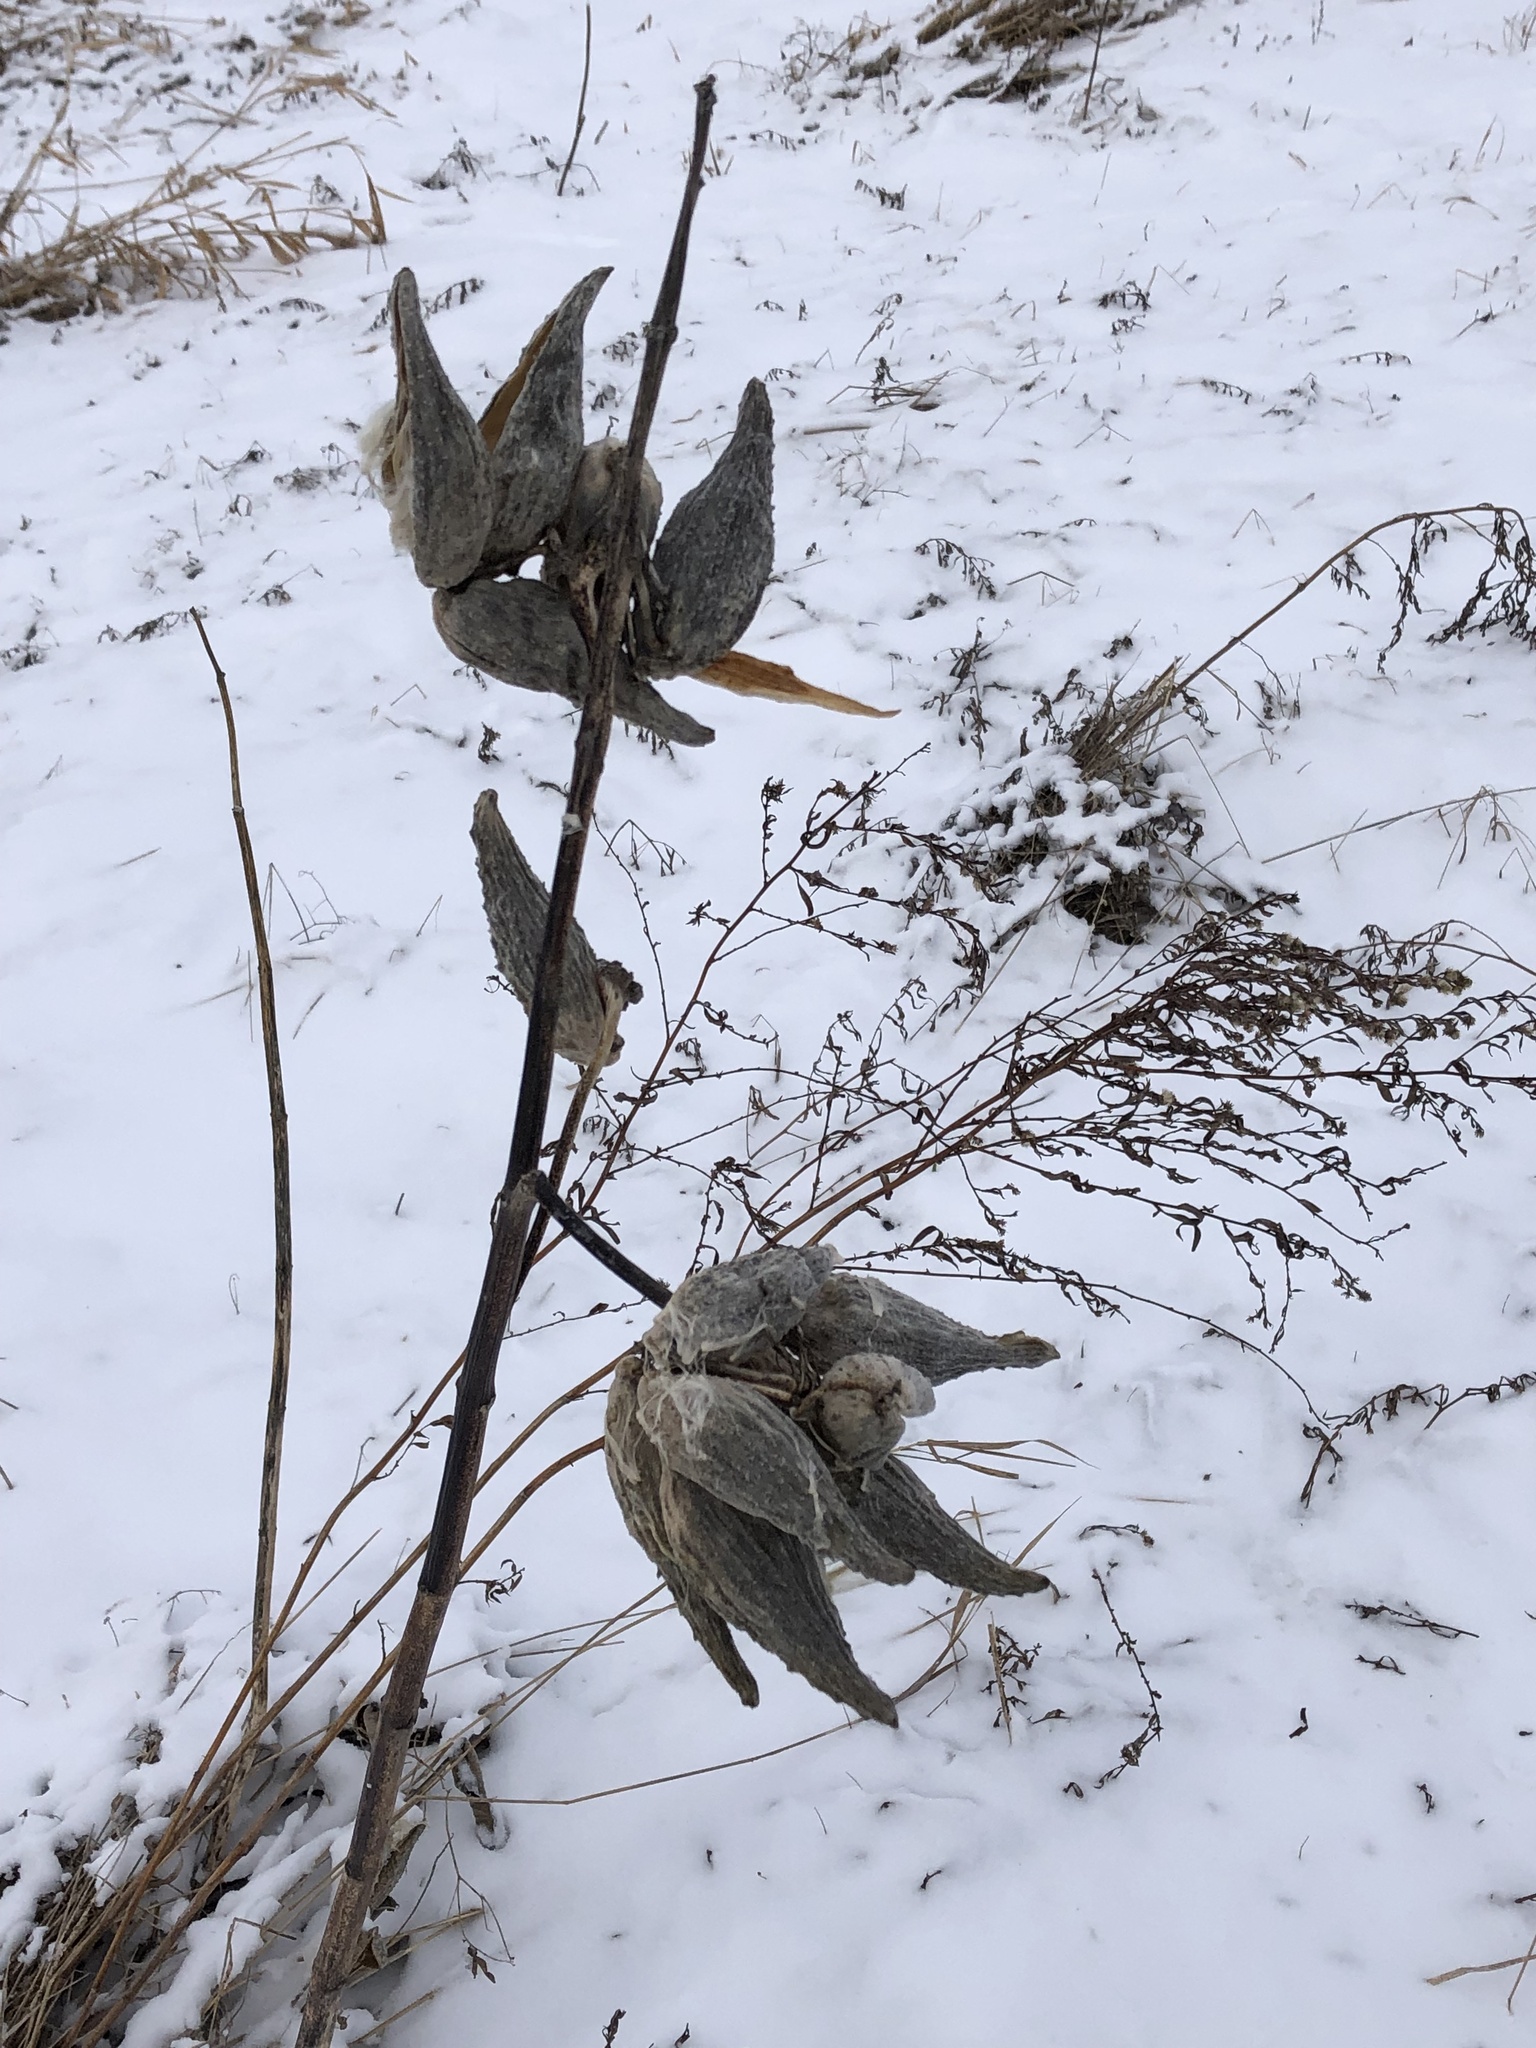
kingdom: Plantae
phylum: Tracheophyta
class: Magnoliopsida
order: Gentianales
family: Apocynaceae
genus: Asclepias
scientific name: Asclepias syriaca
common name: Common milkweed
